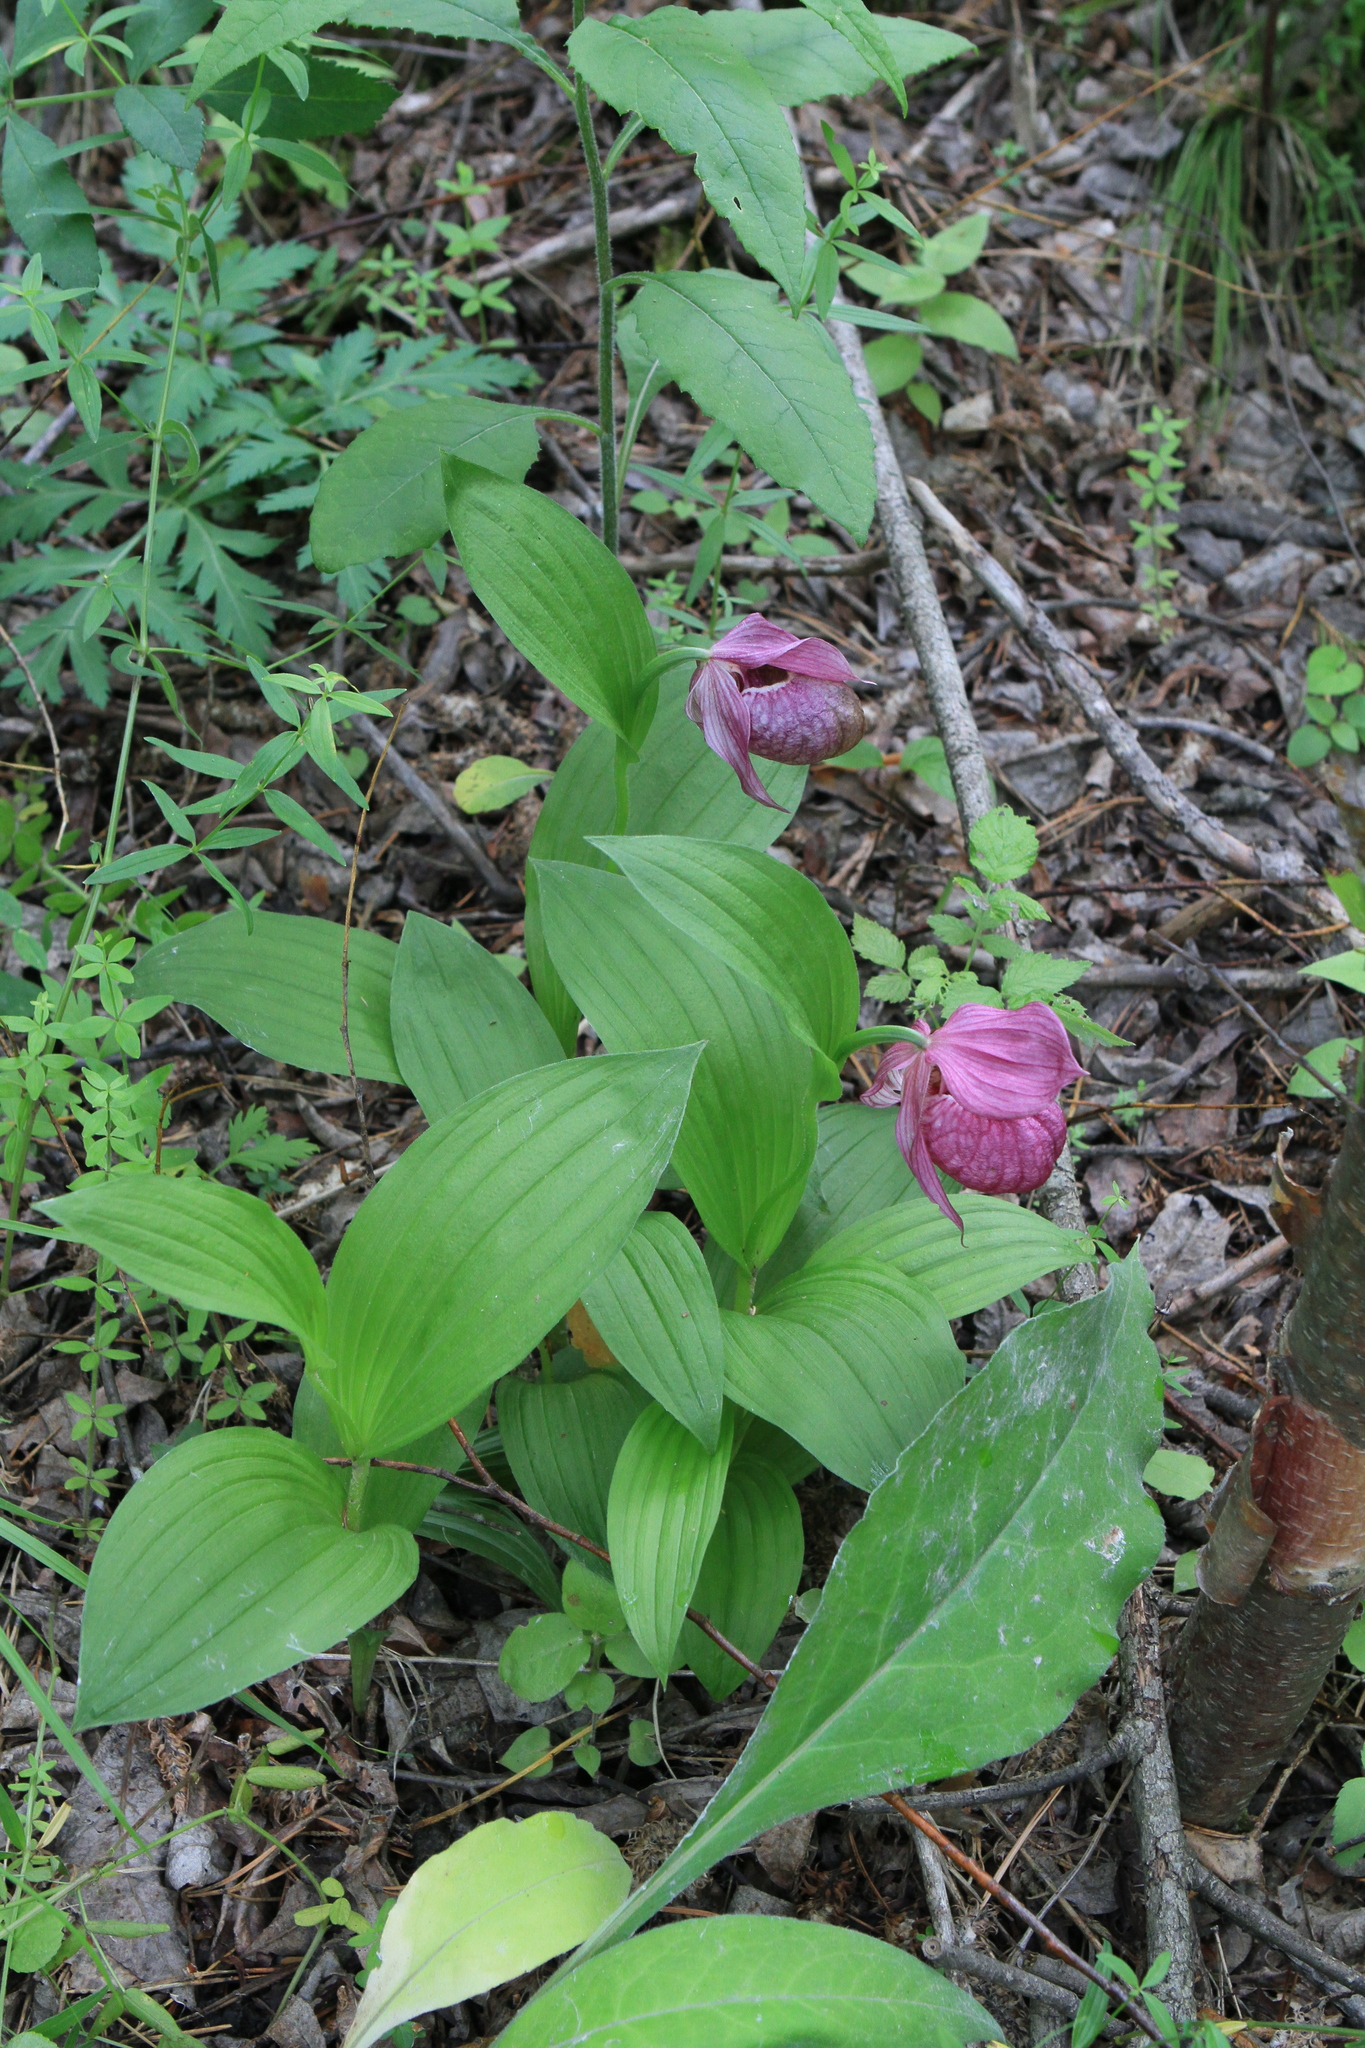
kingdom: Plantae
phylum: Tracheophyta
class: Liliopsida
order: Asparagales
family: Orchidaceae
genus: Cypripedium
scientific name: Cypripedium macranthos
